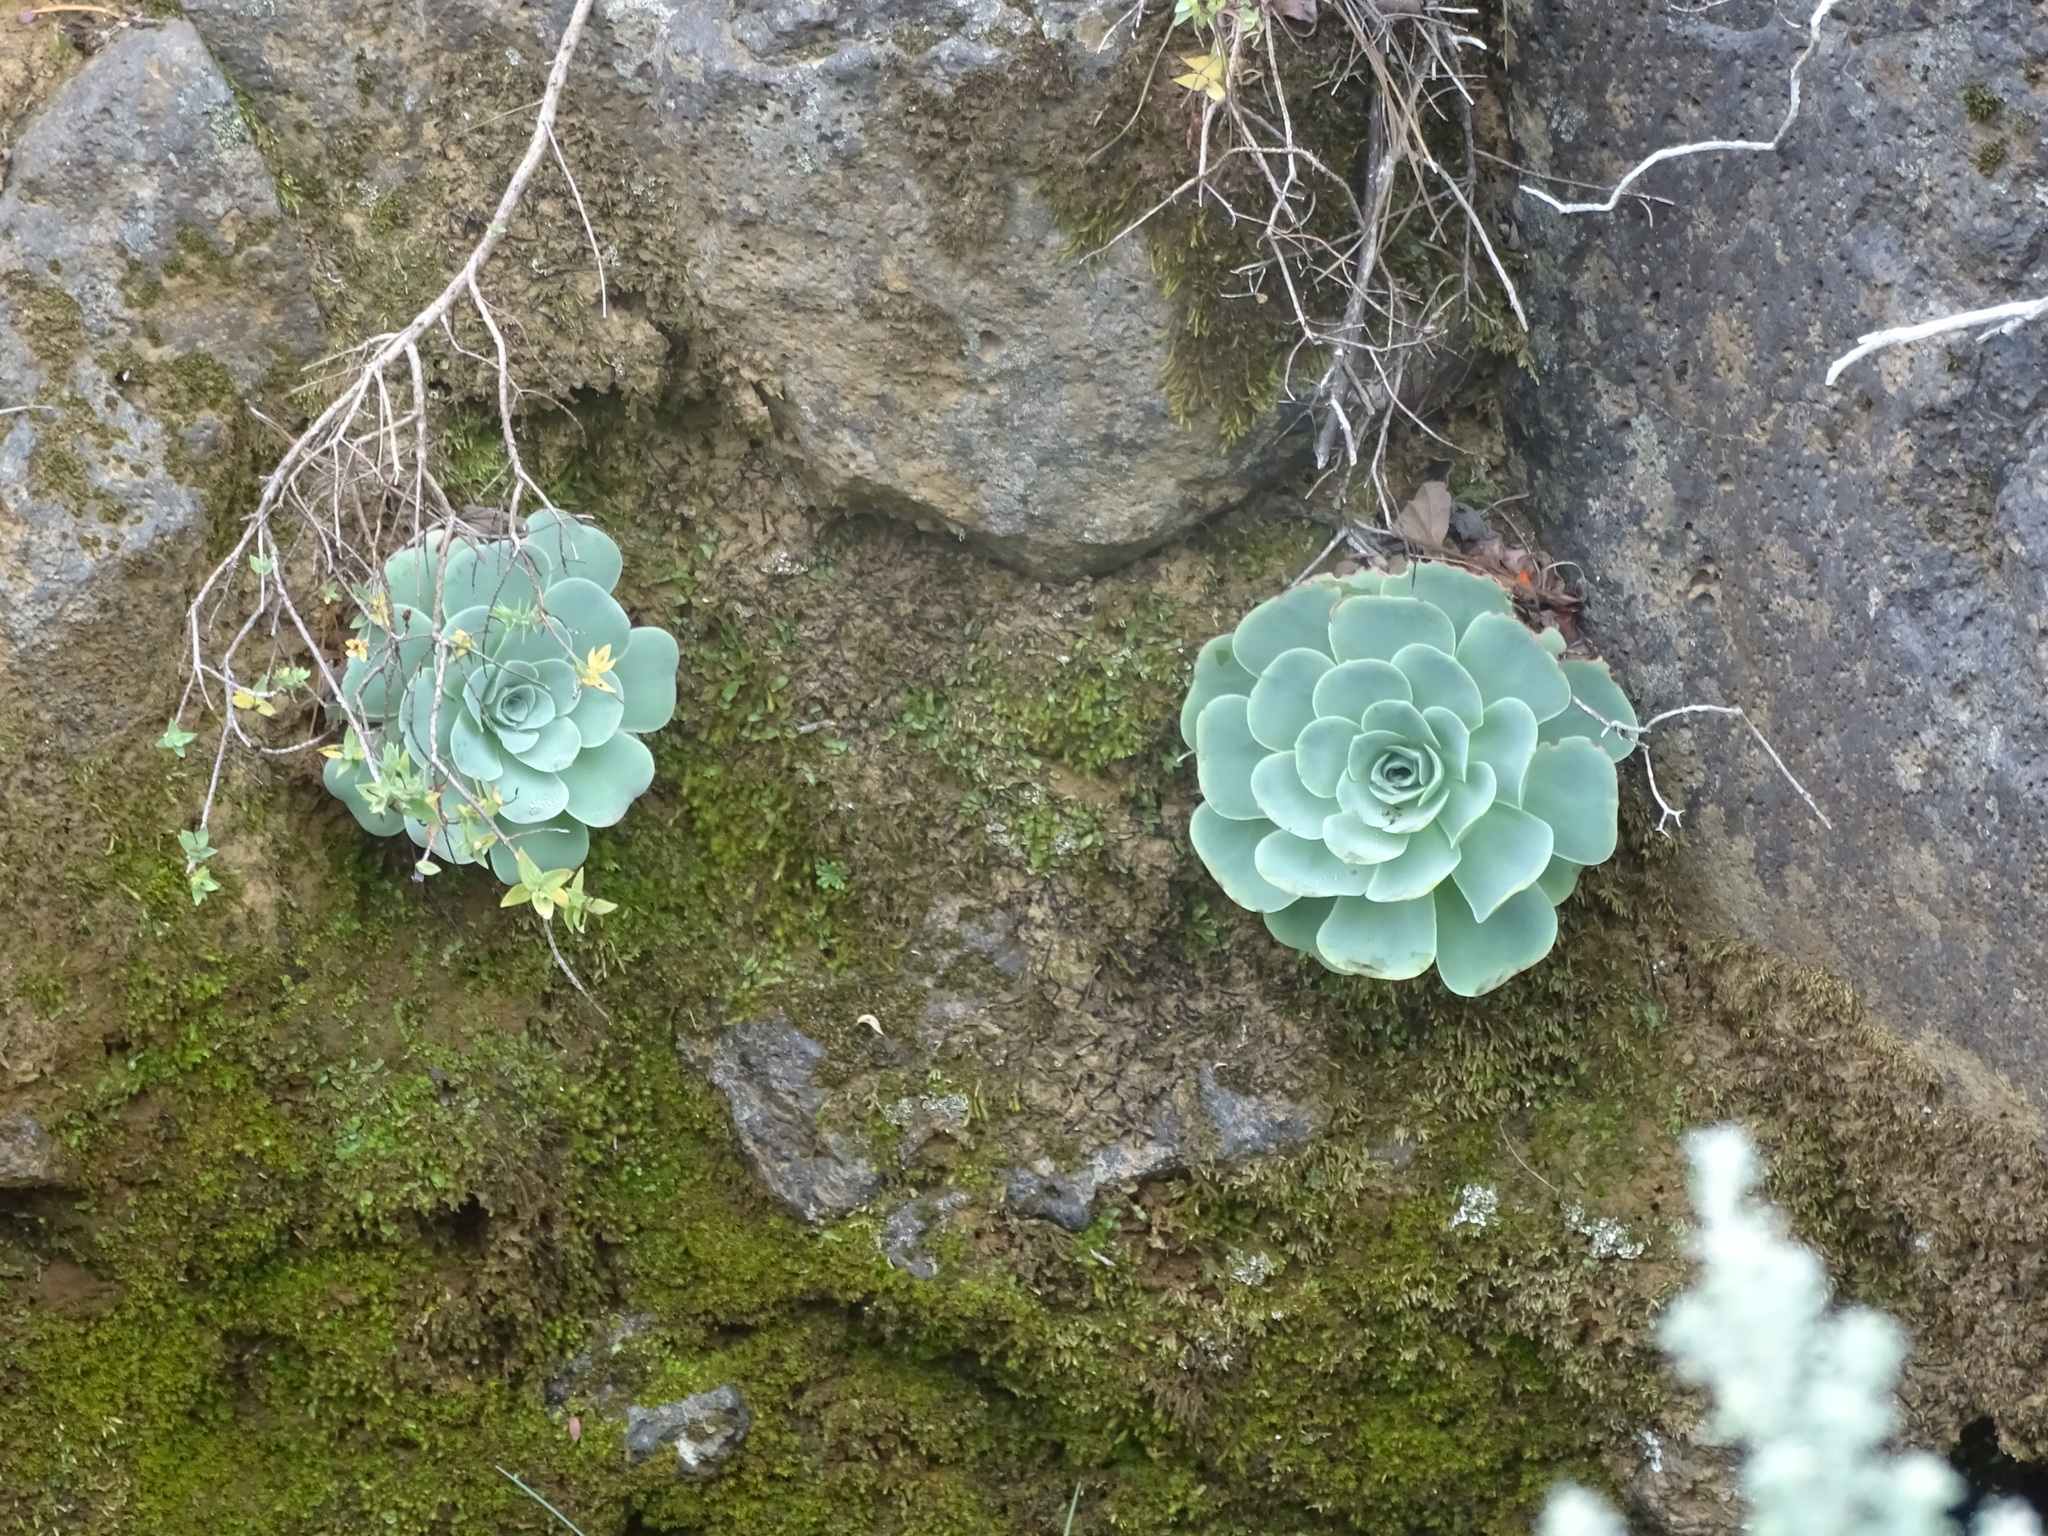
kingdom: Plantae
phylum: Tracheophyta
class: Magnoliopsida
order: Saxifragales
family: Crassulaceae
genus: Aeonium
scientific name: Aeonium aureum
